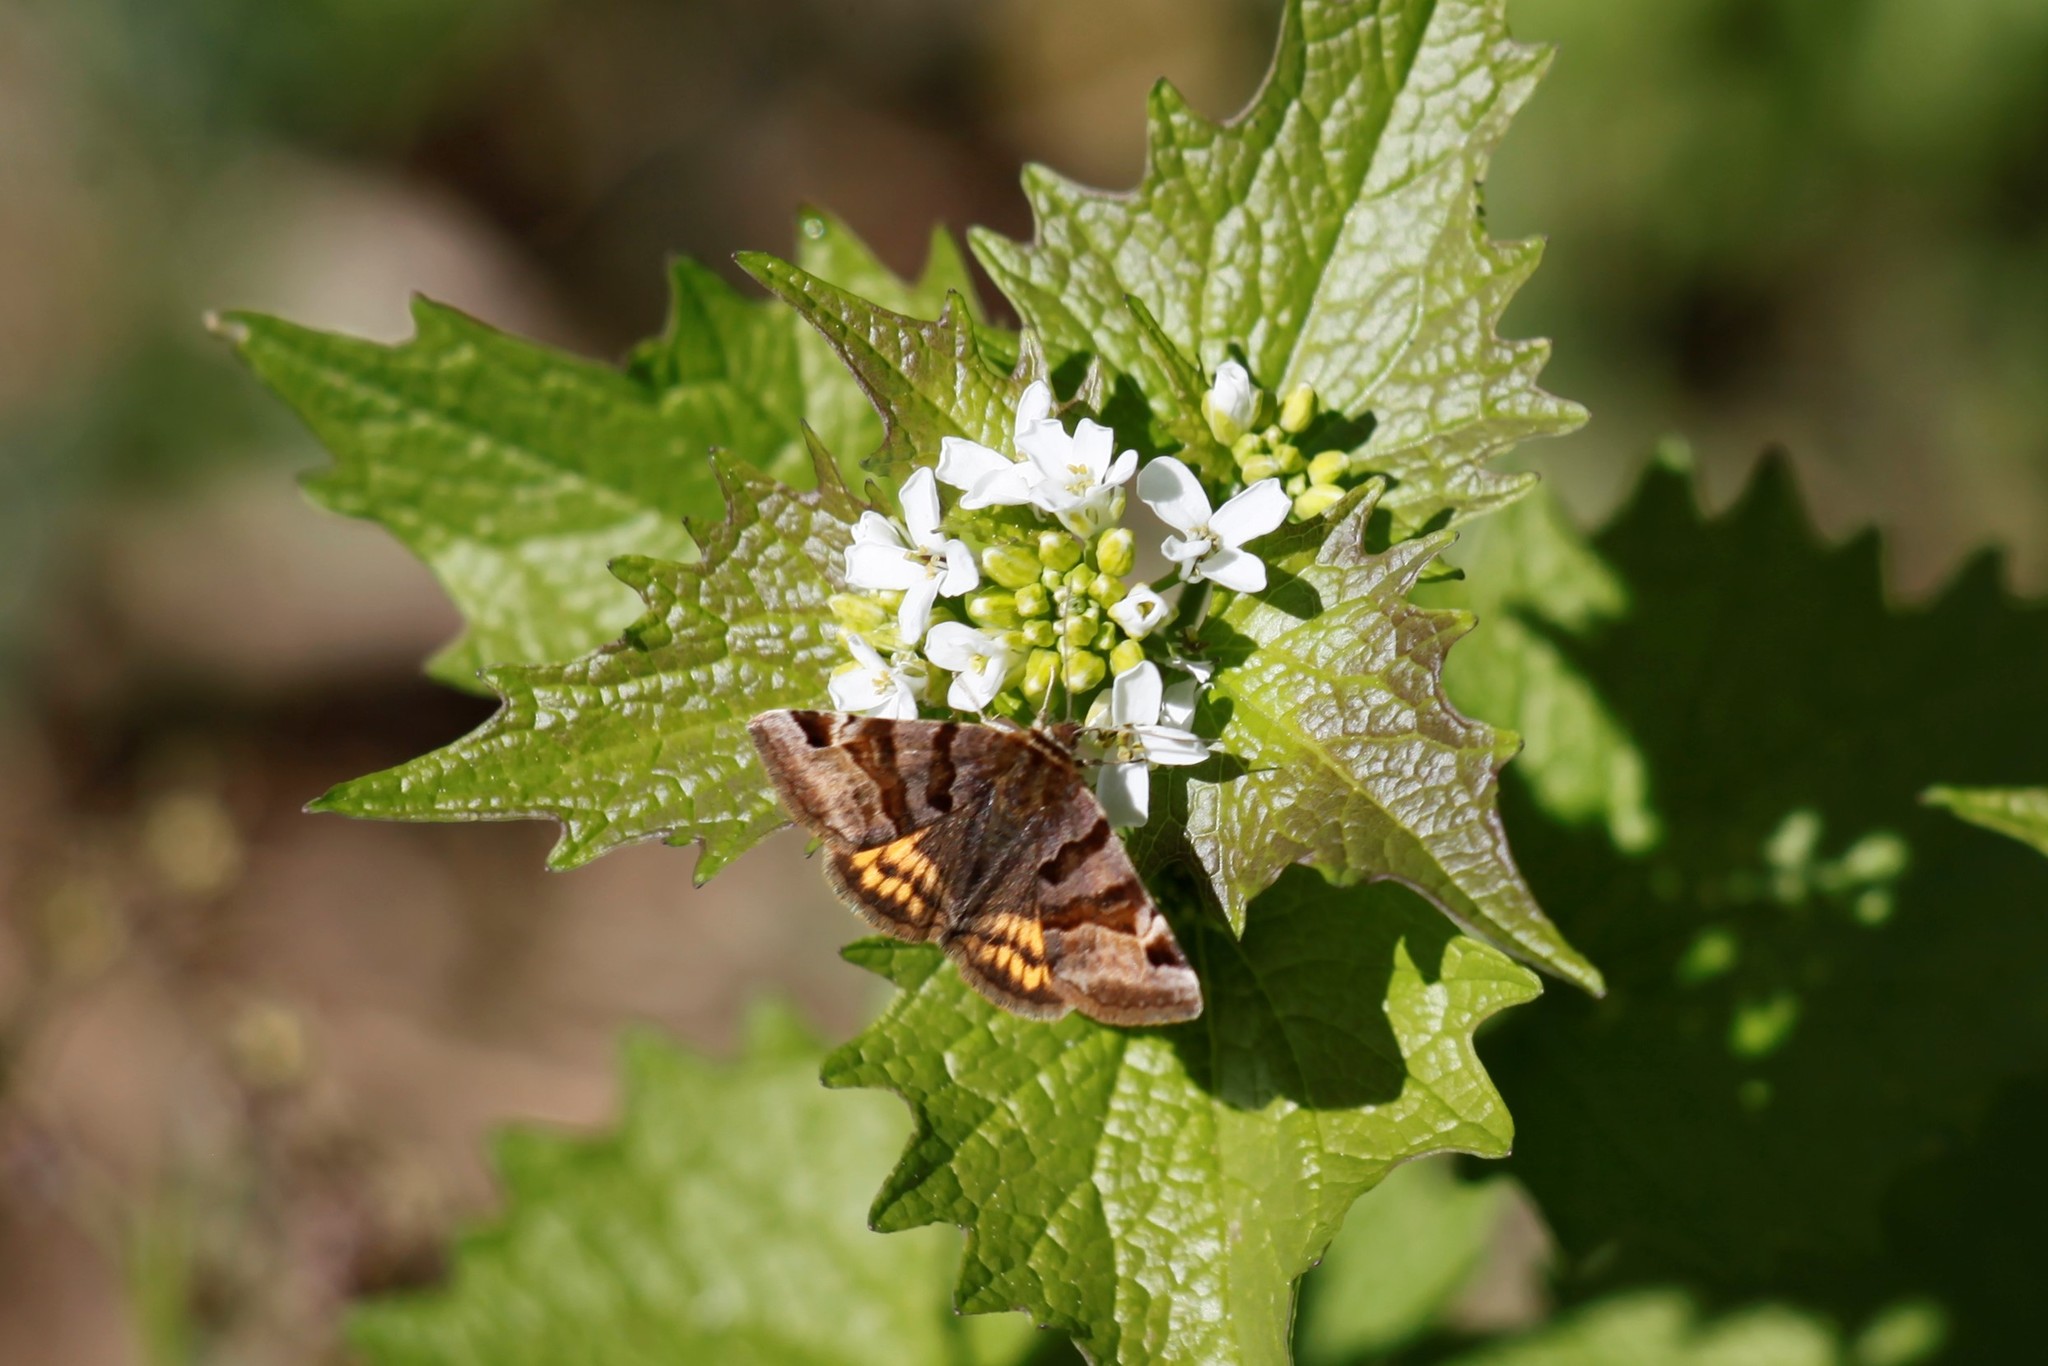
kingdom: Animalia
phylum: Arthropoda
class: Insecta
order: Lepidoptera
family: Erebidae
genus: Euclidia
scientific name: Euclidia glyphica
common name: Burnet companion
